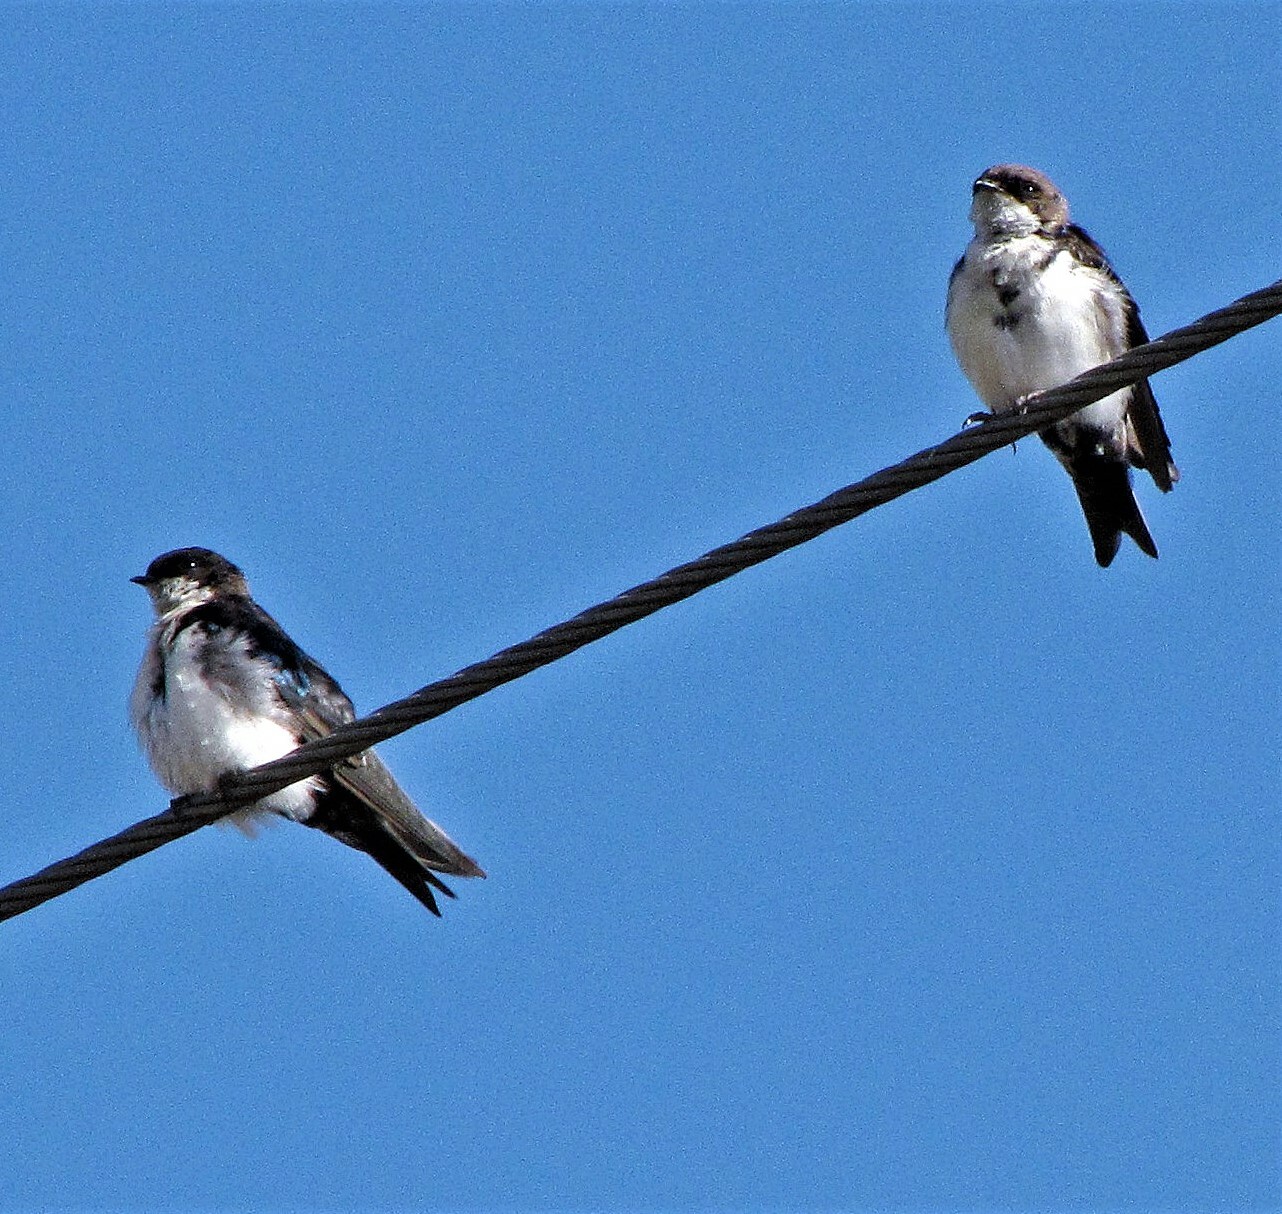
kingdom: Animalia
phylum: Chordata
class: Aves
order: Passeriformes
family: Hirundinidae
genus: Notiochelidon
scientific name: Notiochelidon cyanoleuca
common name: Blue-and-white swallow
